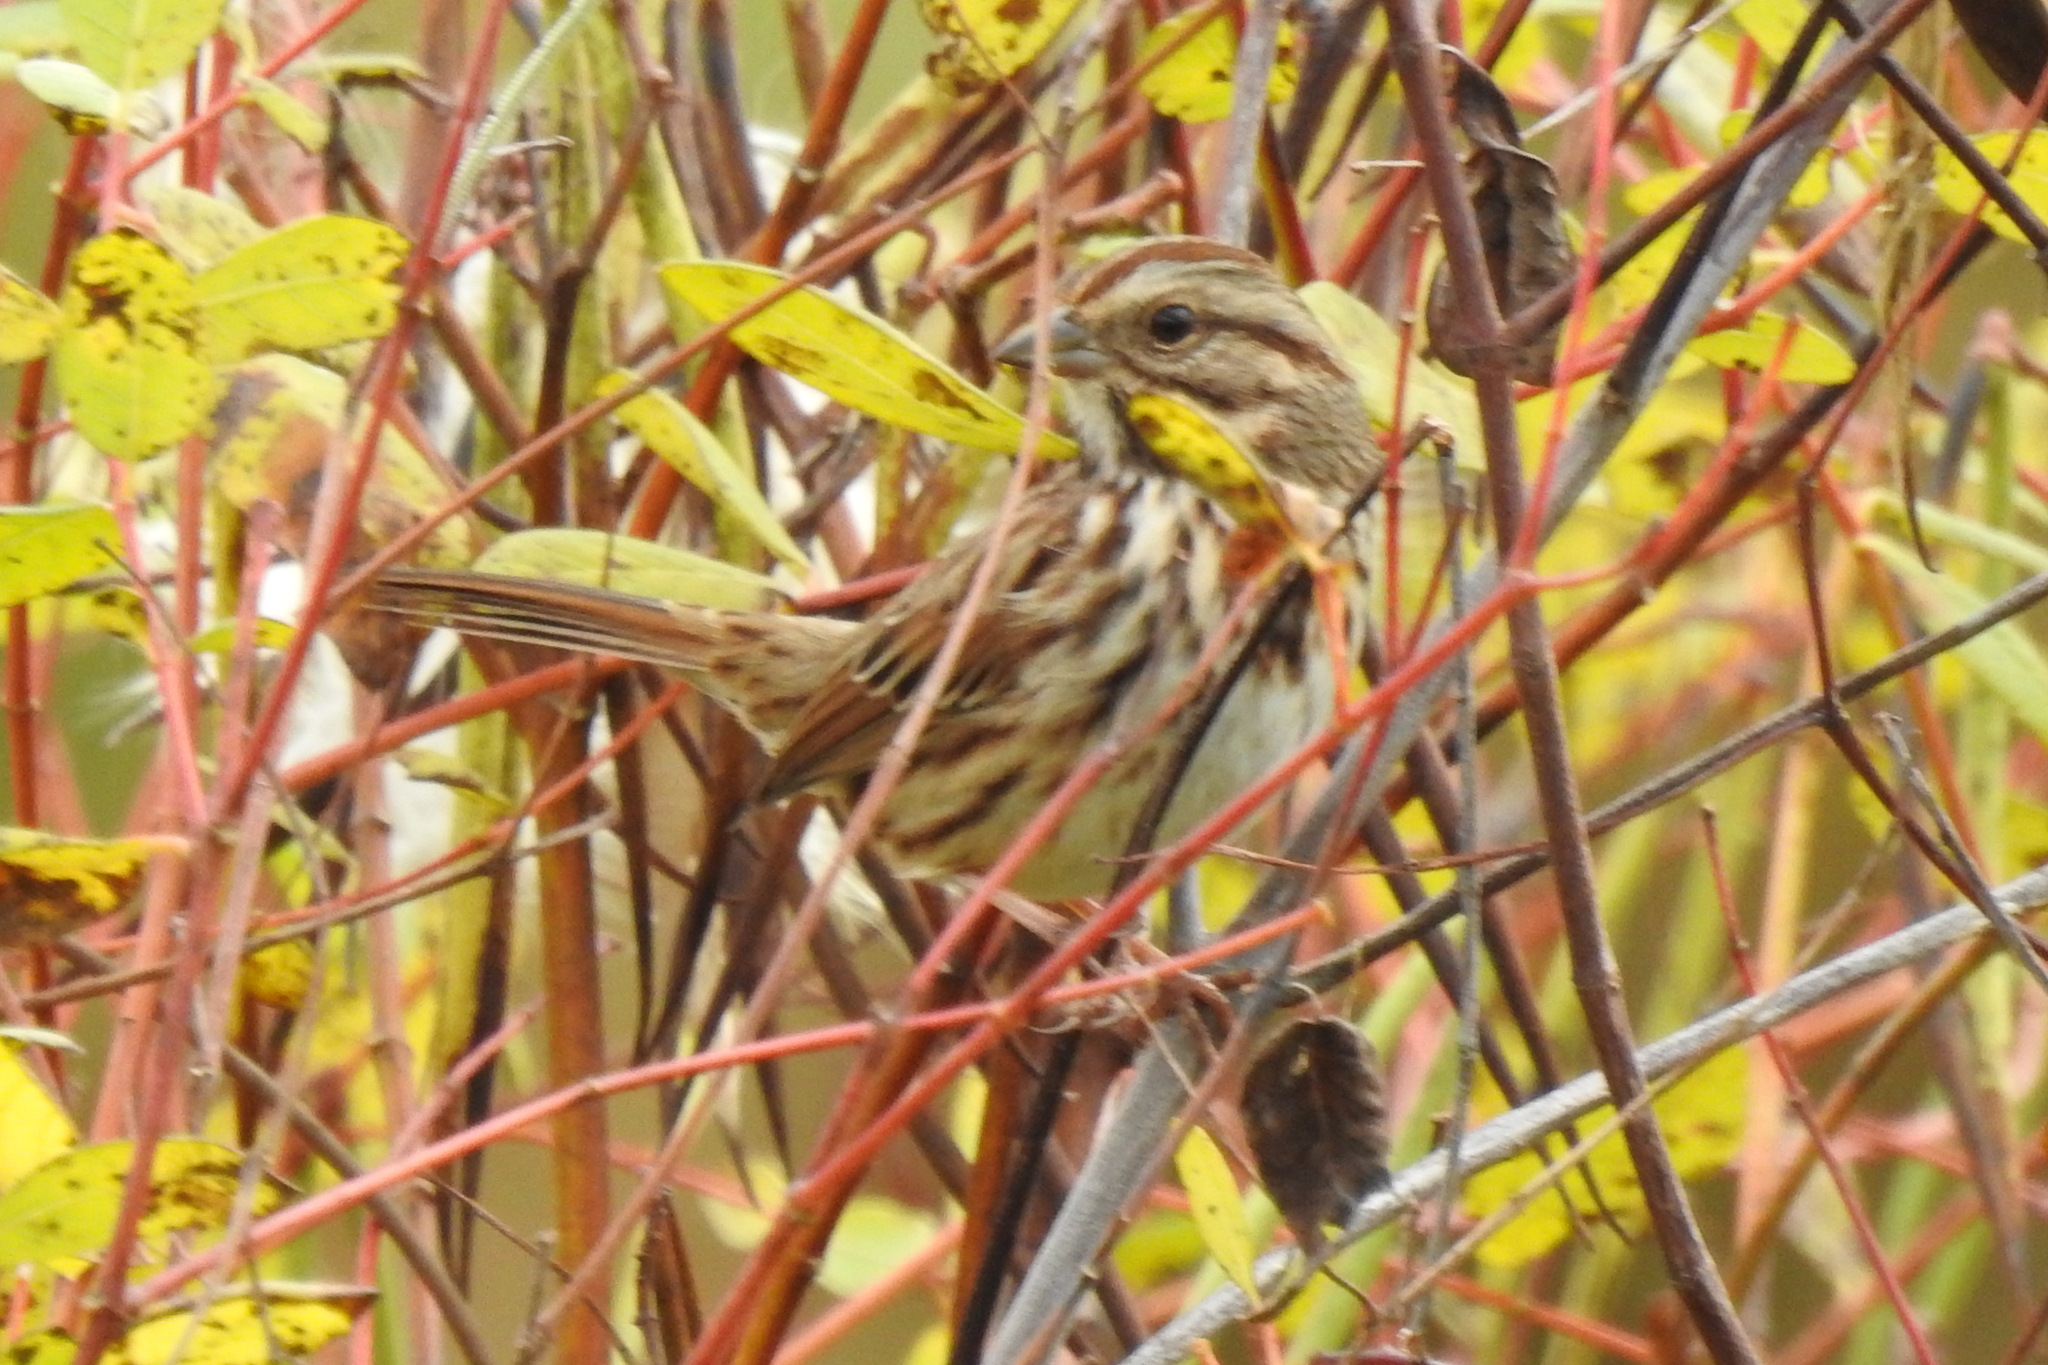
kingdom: Animalia
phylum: Chordata
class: Aves
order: Passeriformes
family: Passerellidae
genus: Melospiza
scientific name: Melospiza melodia
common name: Song sparrow
